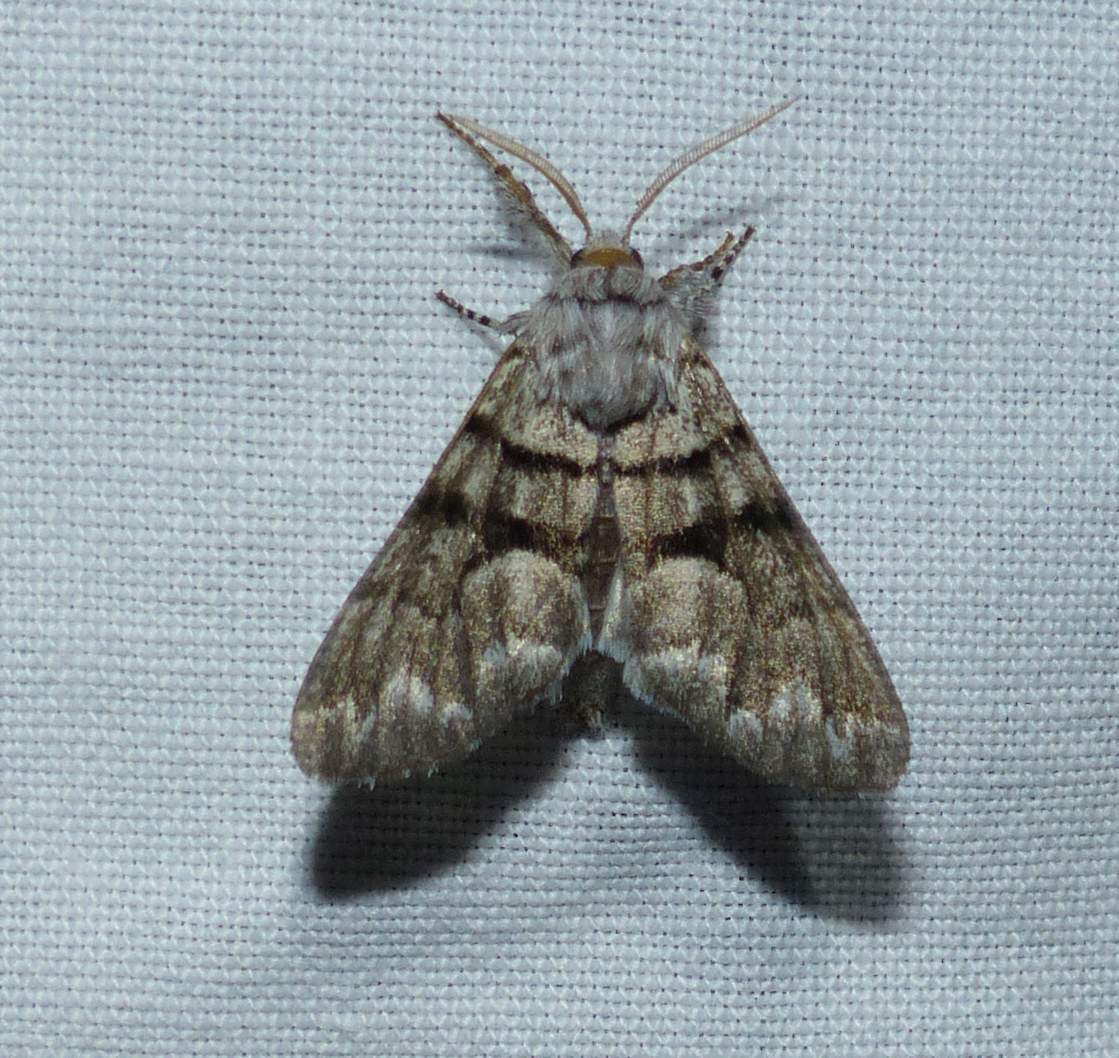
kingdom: Animalia
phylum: Arthropoda
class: Insecta
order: Lepidoptera
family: Noctuidae
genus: Panthea
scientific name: Panthea furcilla
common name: Eastern panthea moth
